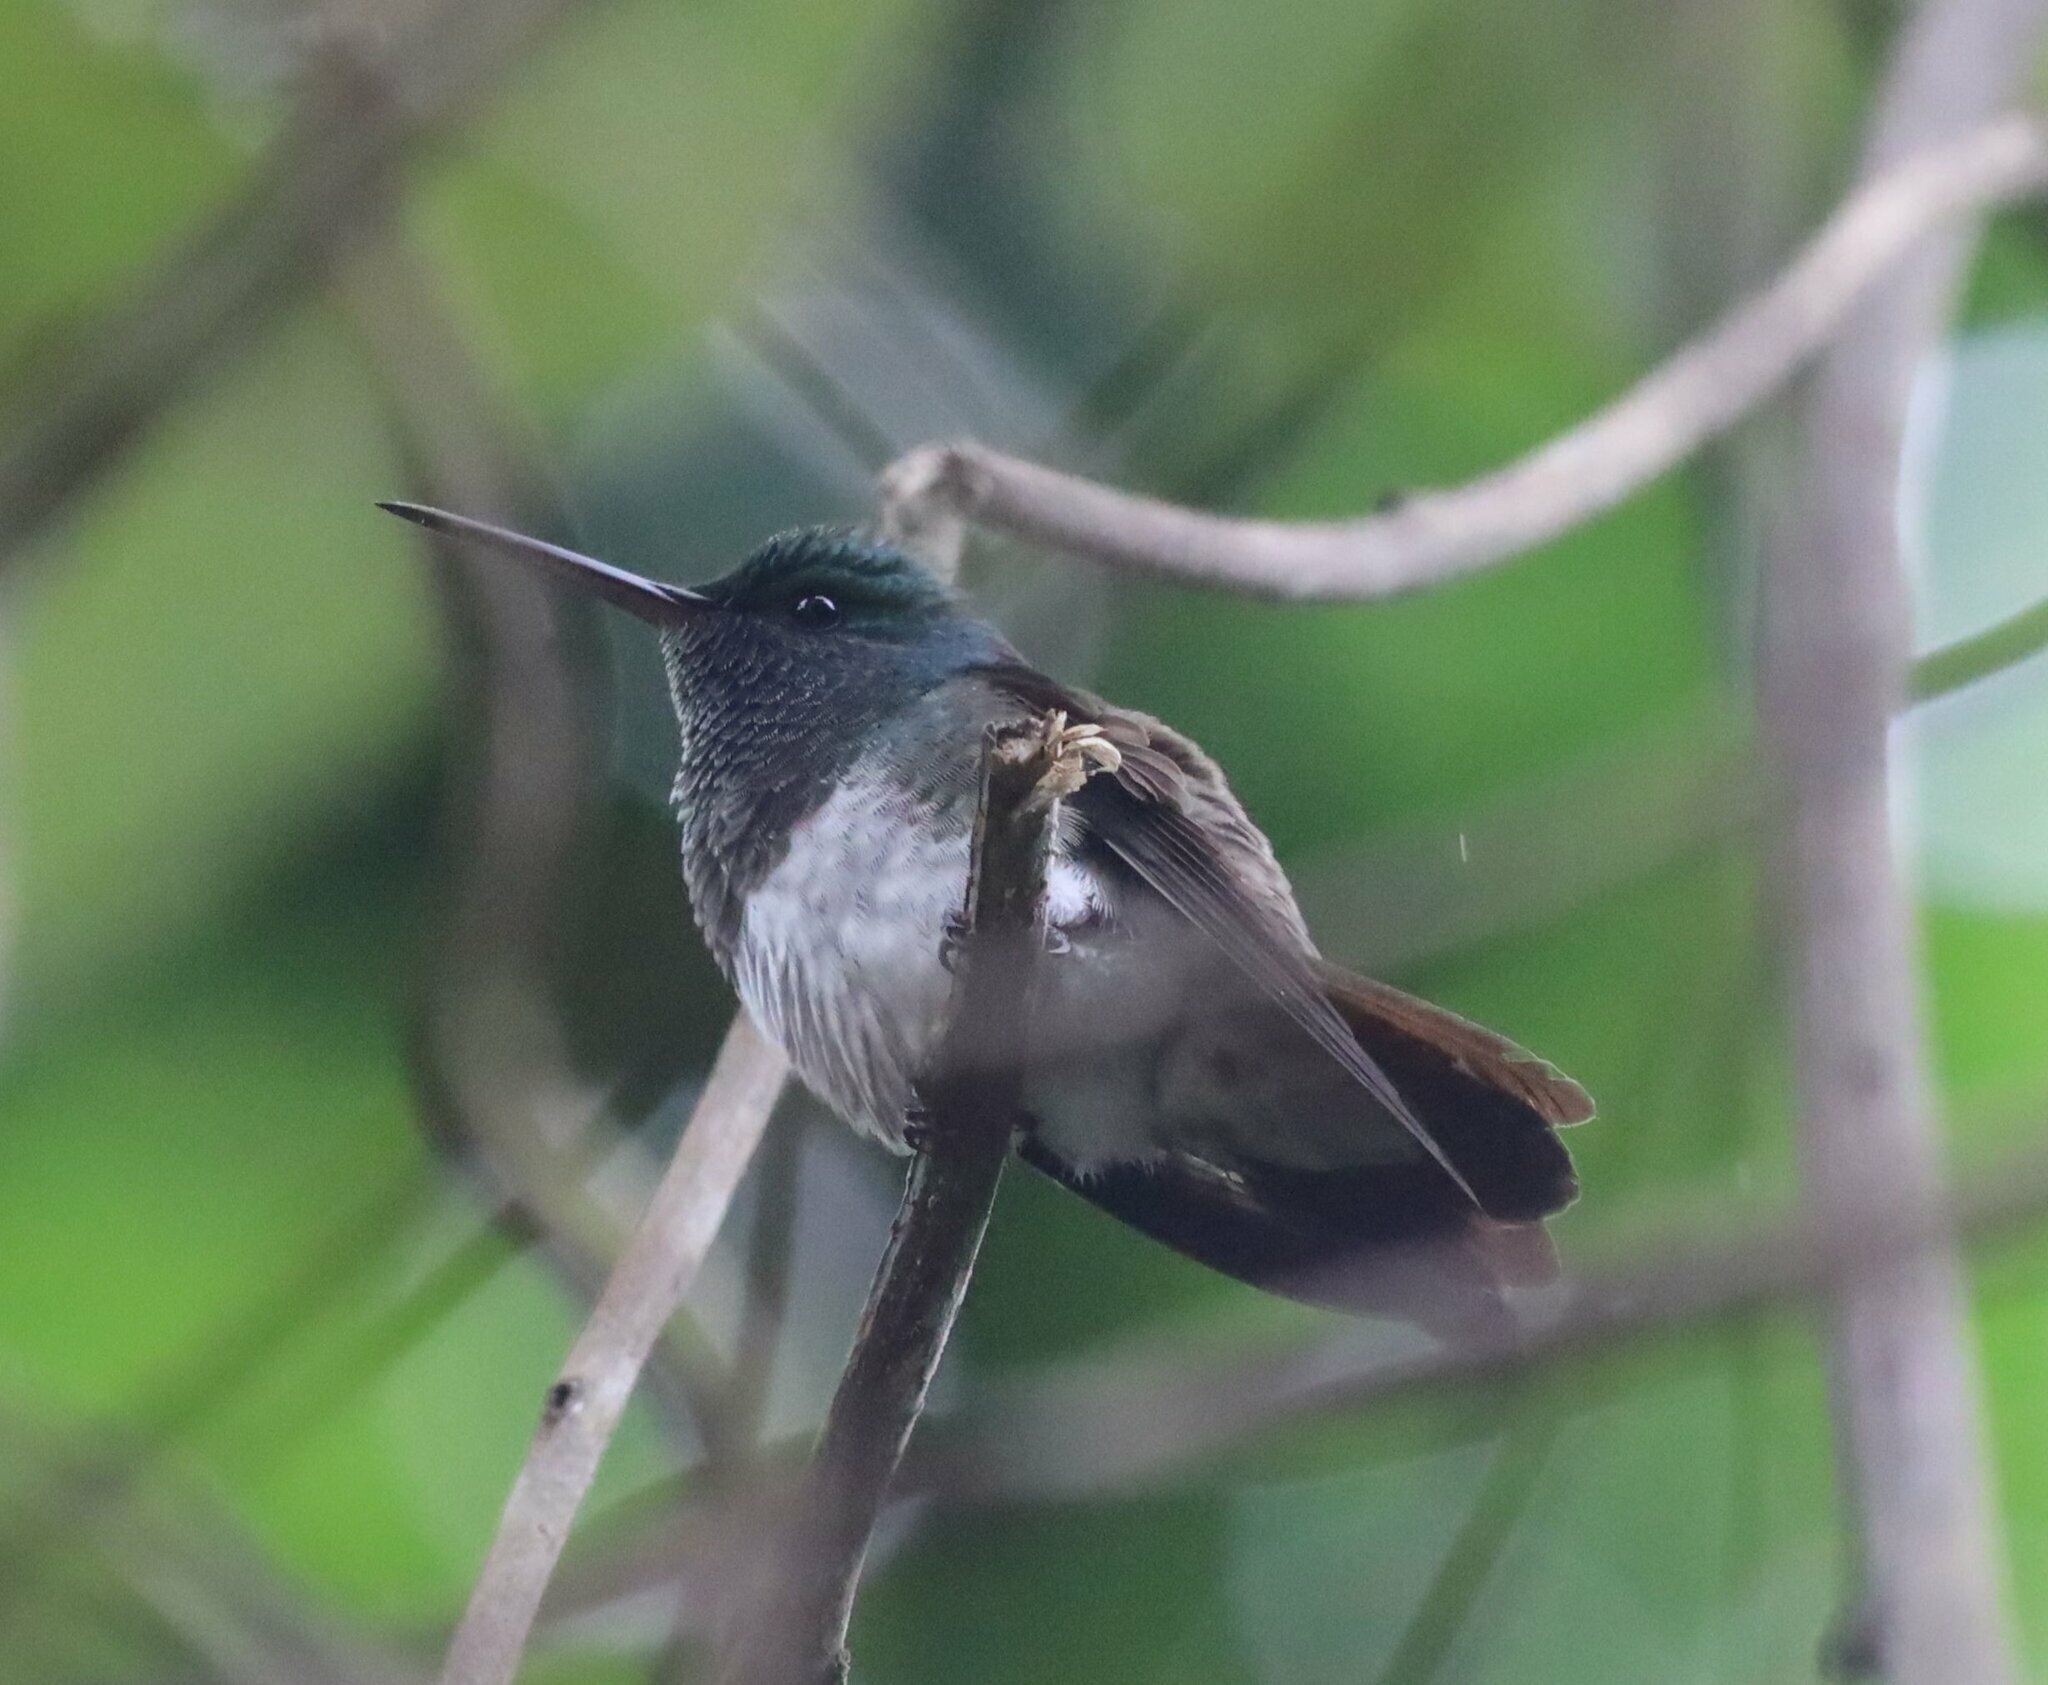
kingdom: Animalia
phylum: Chordata
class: Aves
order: Apodiformes
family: Trochilidae
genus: Saucerottia
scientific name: Saucerottia edward
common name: Snowy-bellied hummingbird
